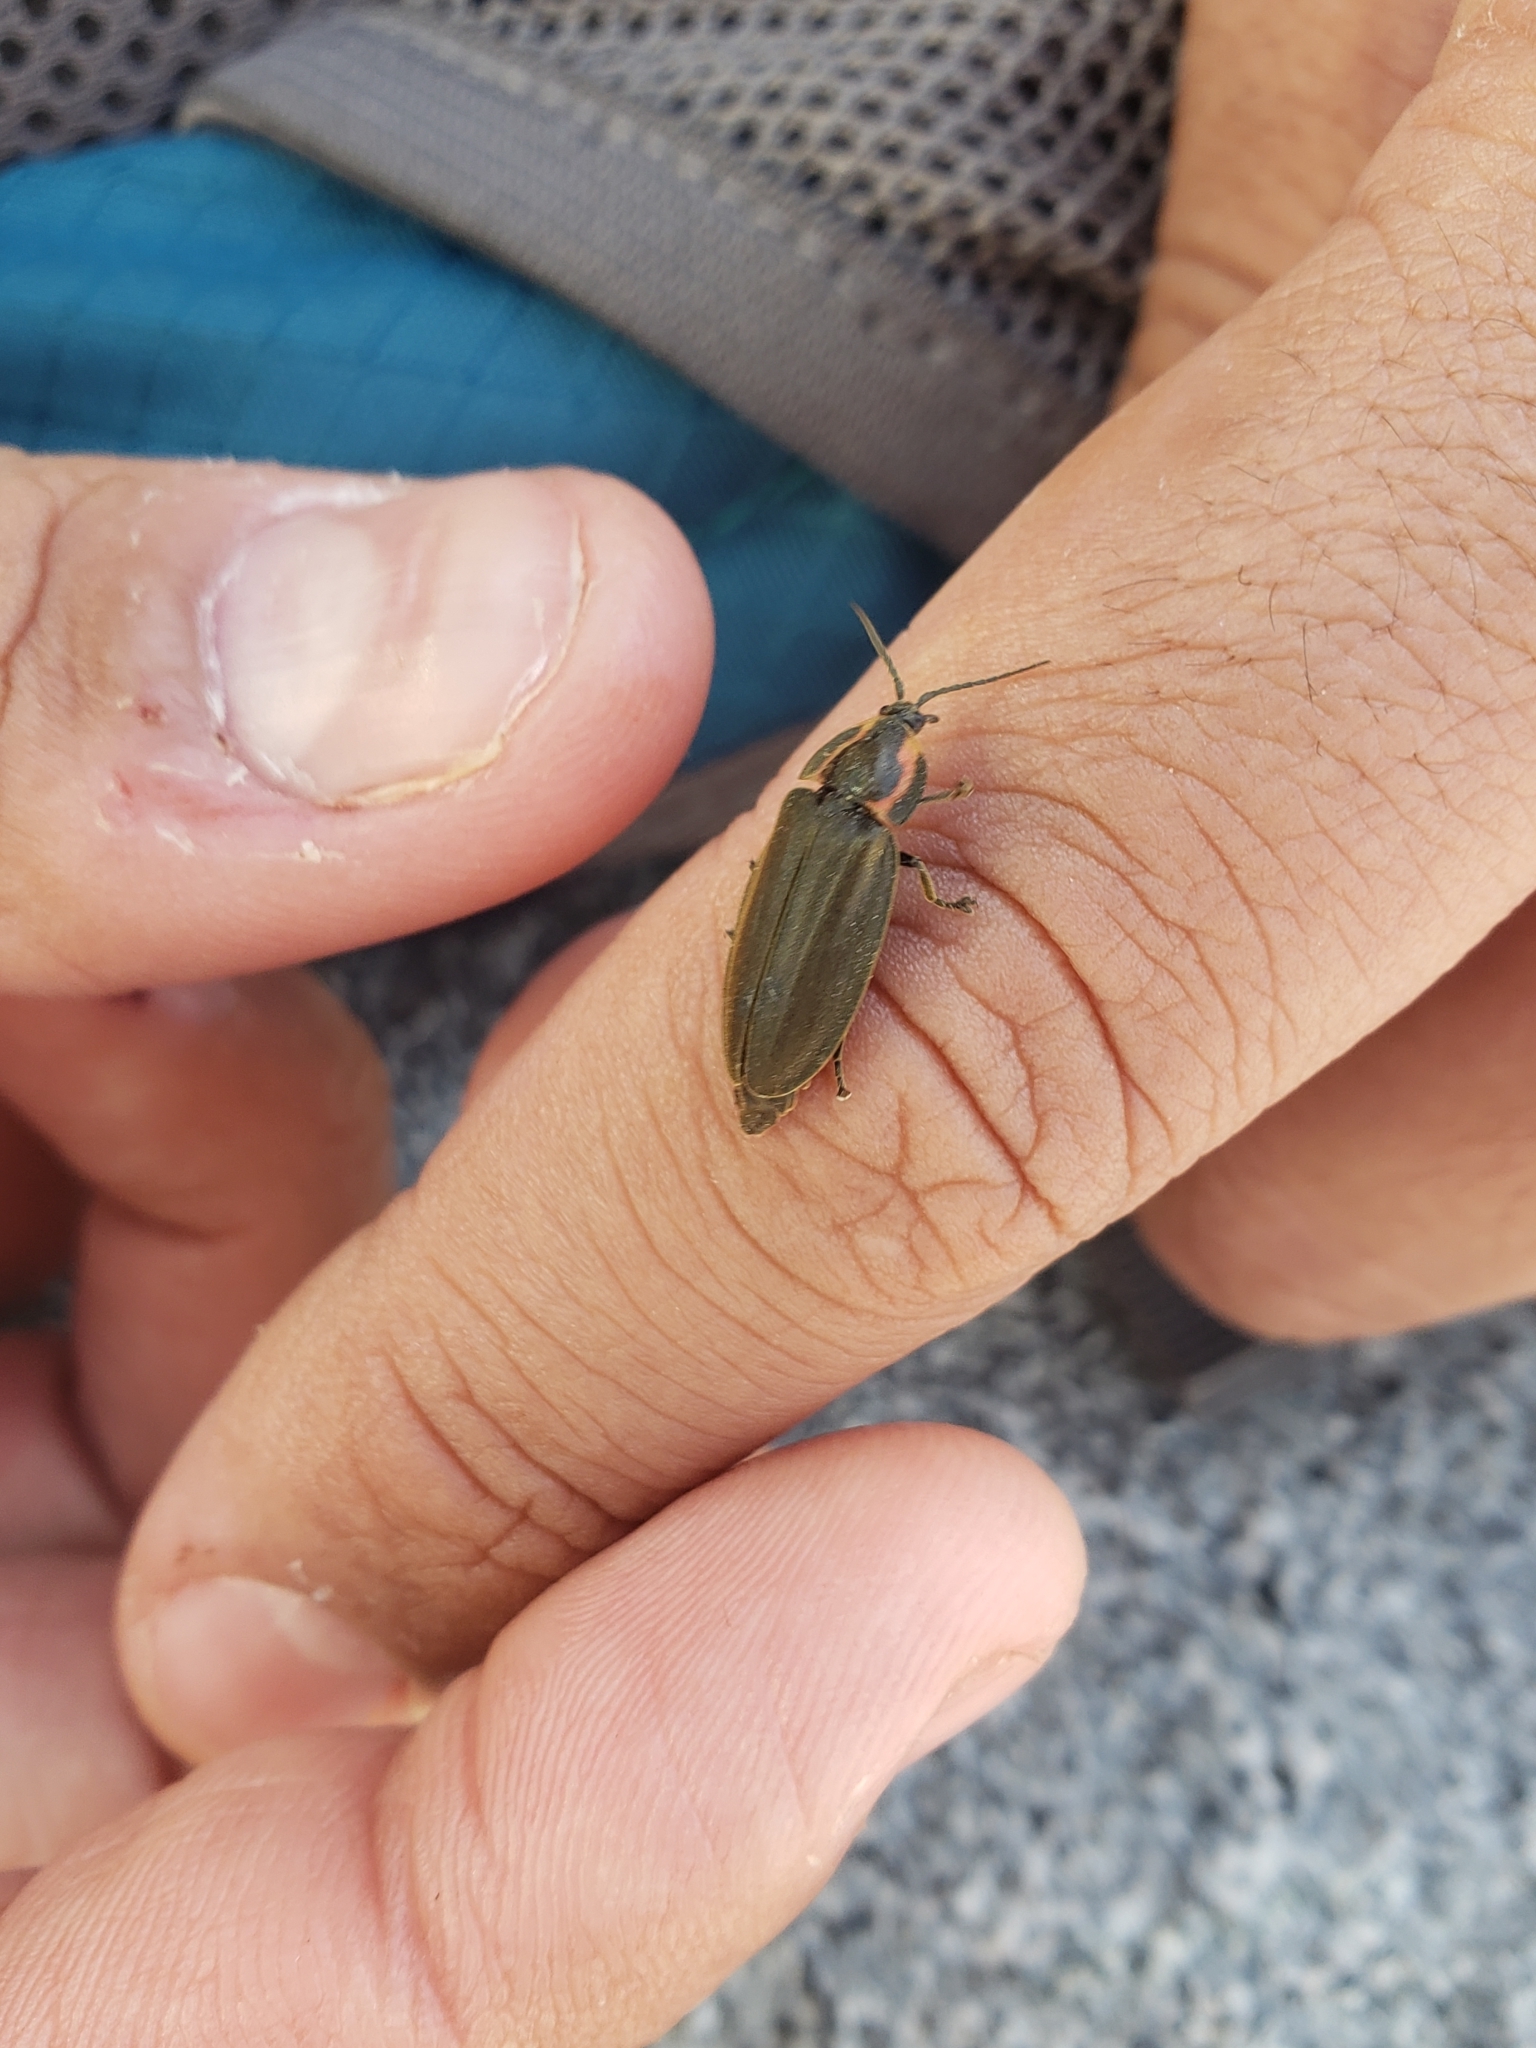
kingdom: Animalia
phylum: Arthropoda
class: Insecta
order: Coleoptera
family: Lampyridae
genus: Photinus
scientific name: Photinus corrusca
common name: Winter firefly
